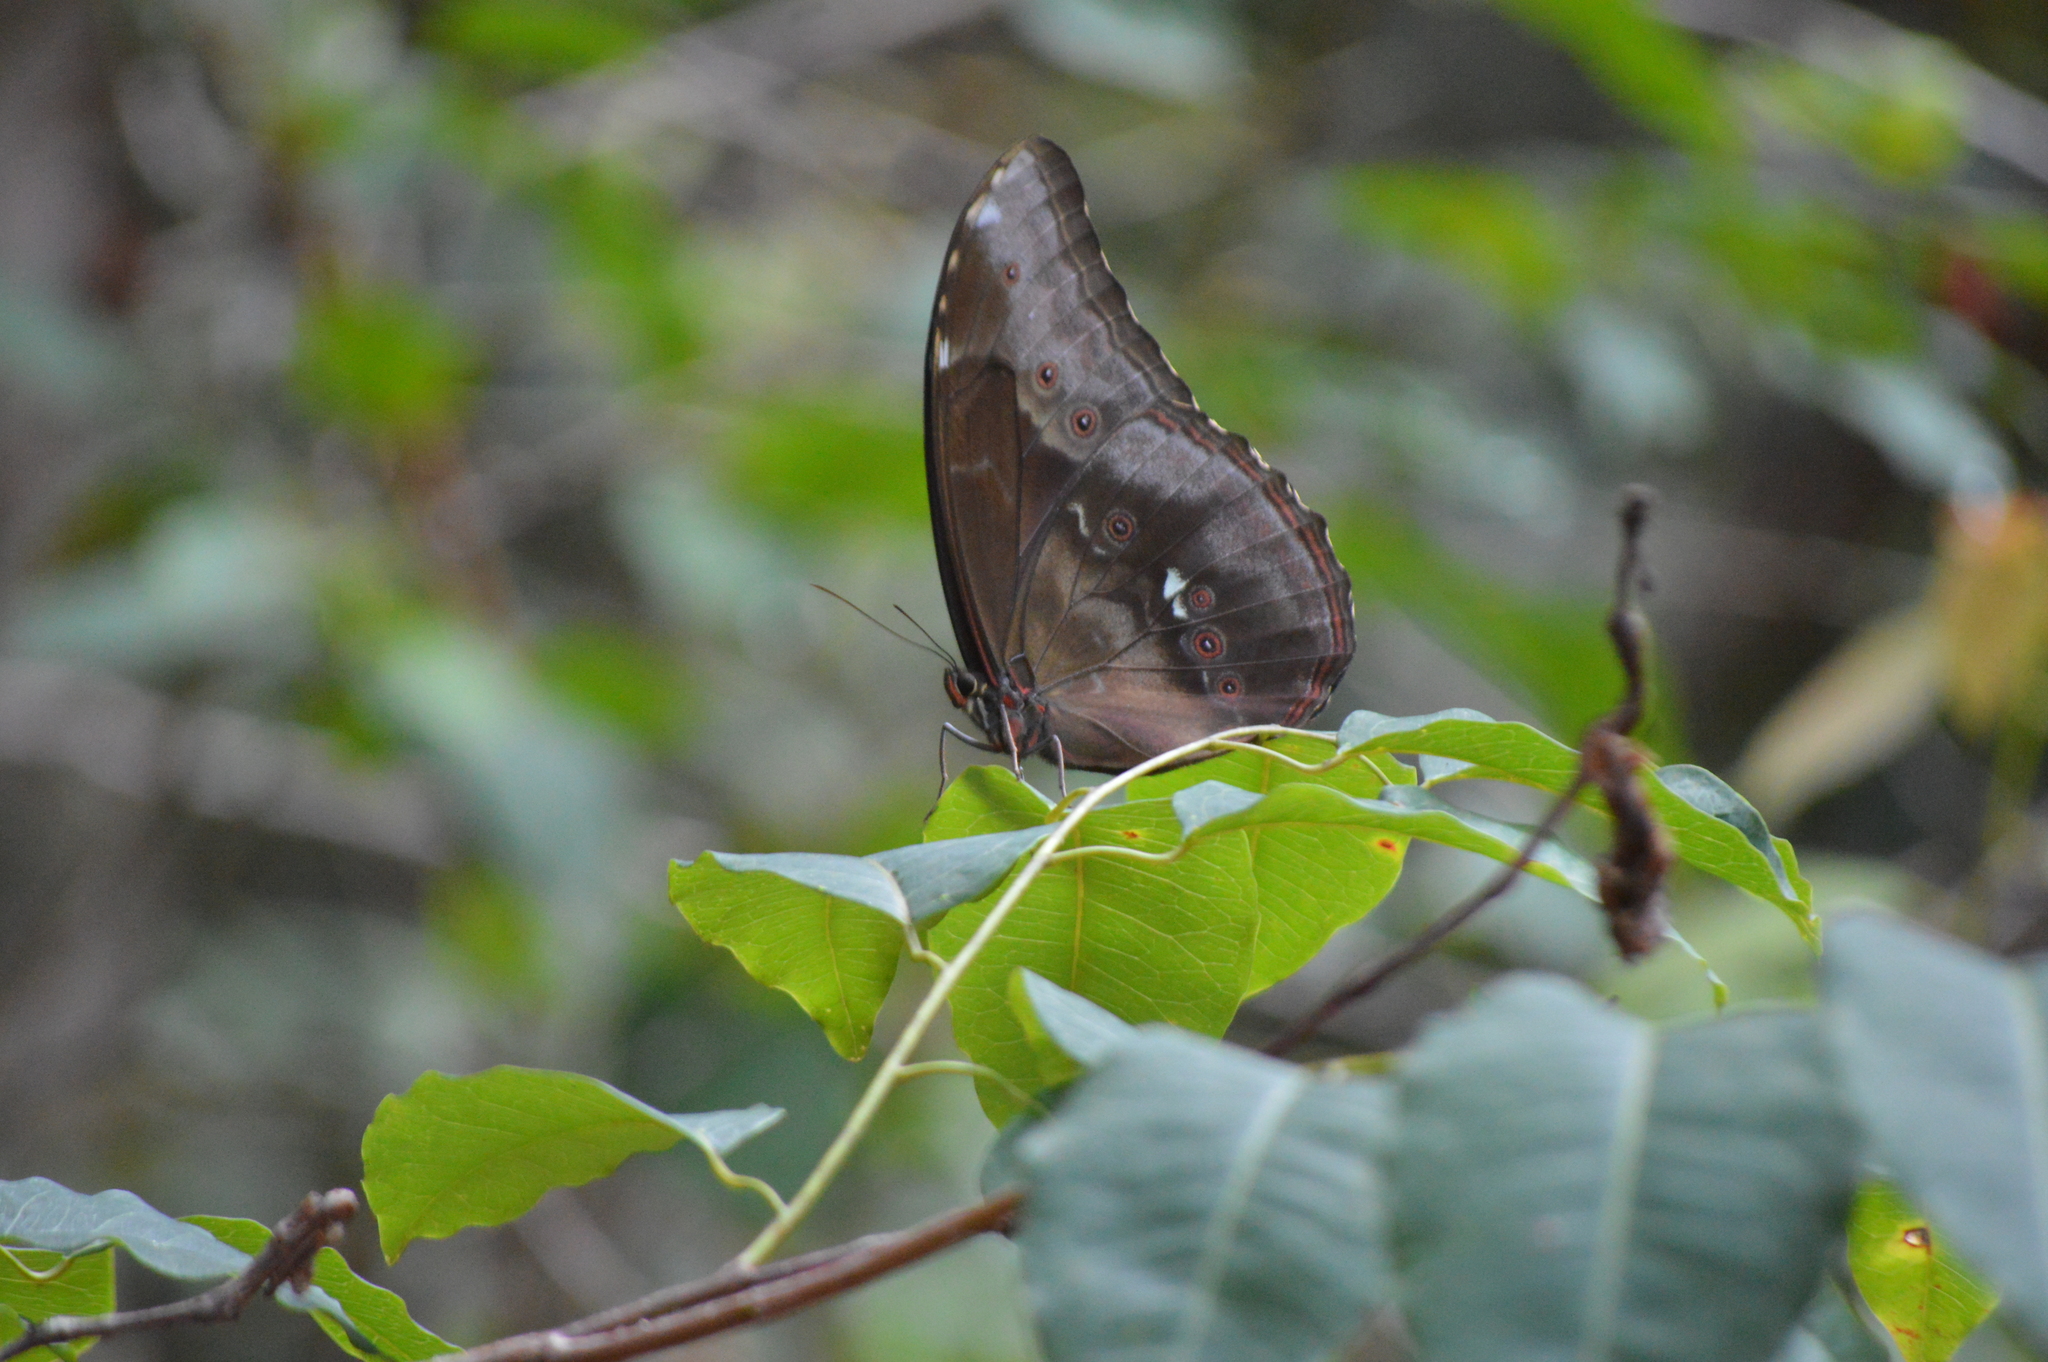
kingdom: Animalia
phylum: Arthropoda
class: Insecta
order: Lepidoptera
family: Nymphalidae
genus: Morpho
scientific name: Morpho menelaus
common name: Menelaus morpho
